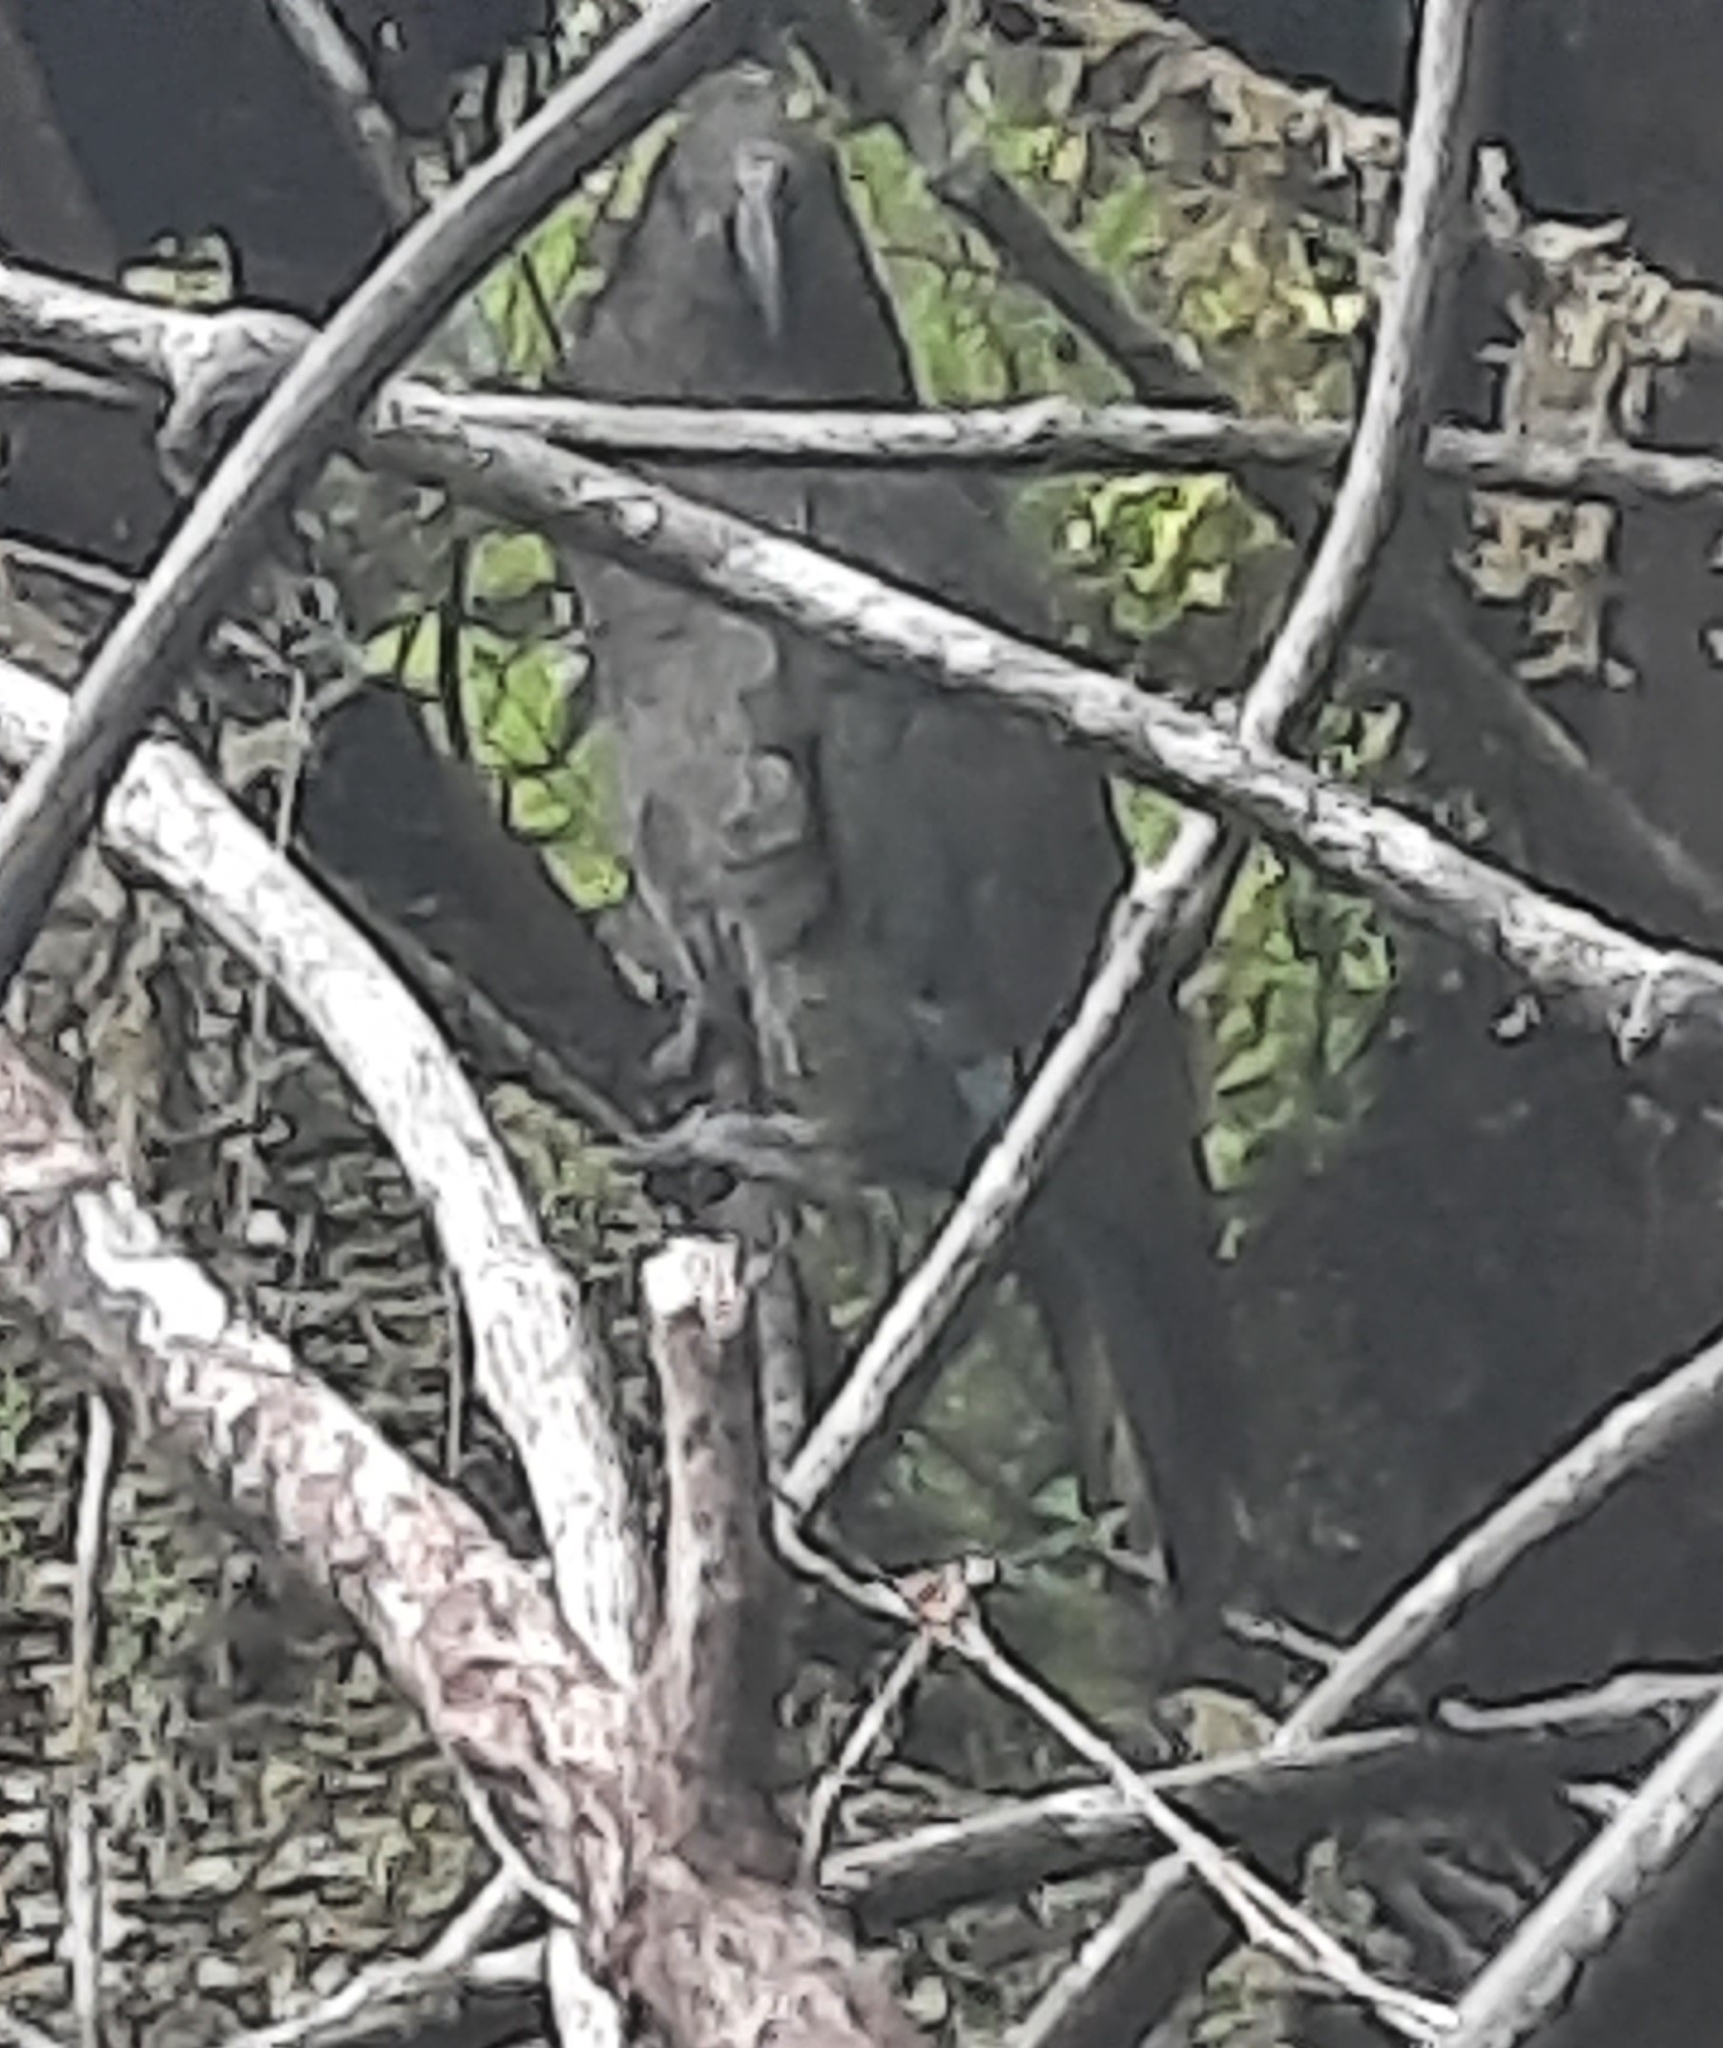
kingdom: Animalia
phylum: Chordata
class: Aves
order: Psittaciformes
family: Psittacidae
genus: Nestor
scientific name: Nestor notabilis
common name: Kea
